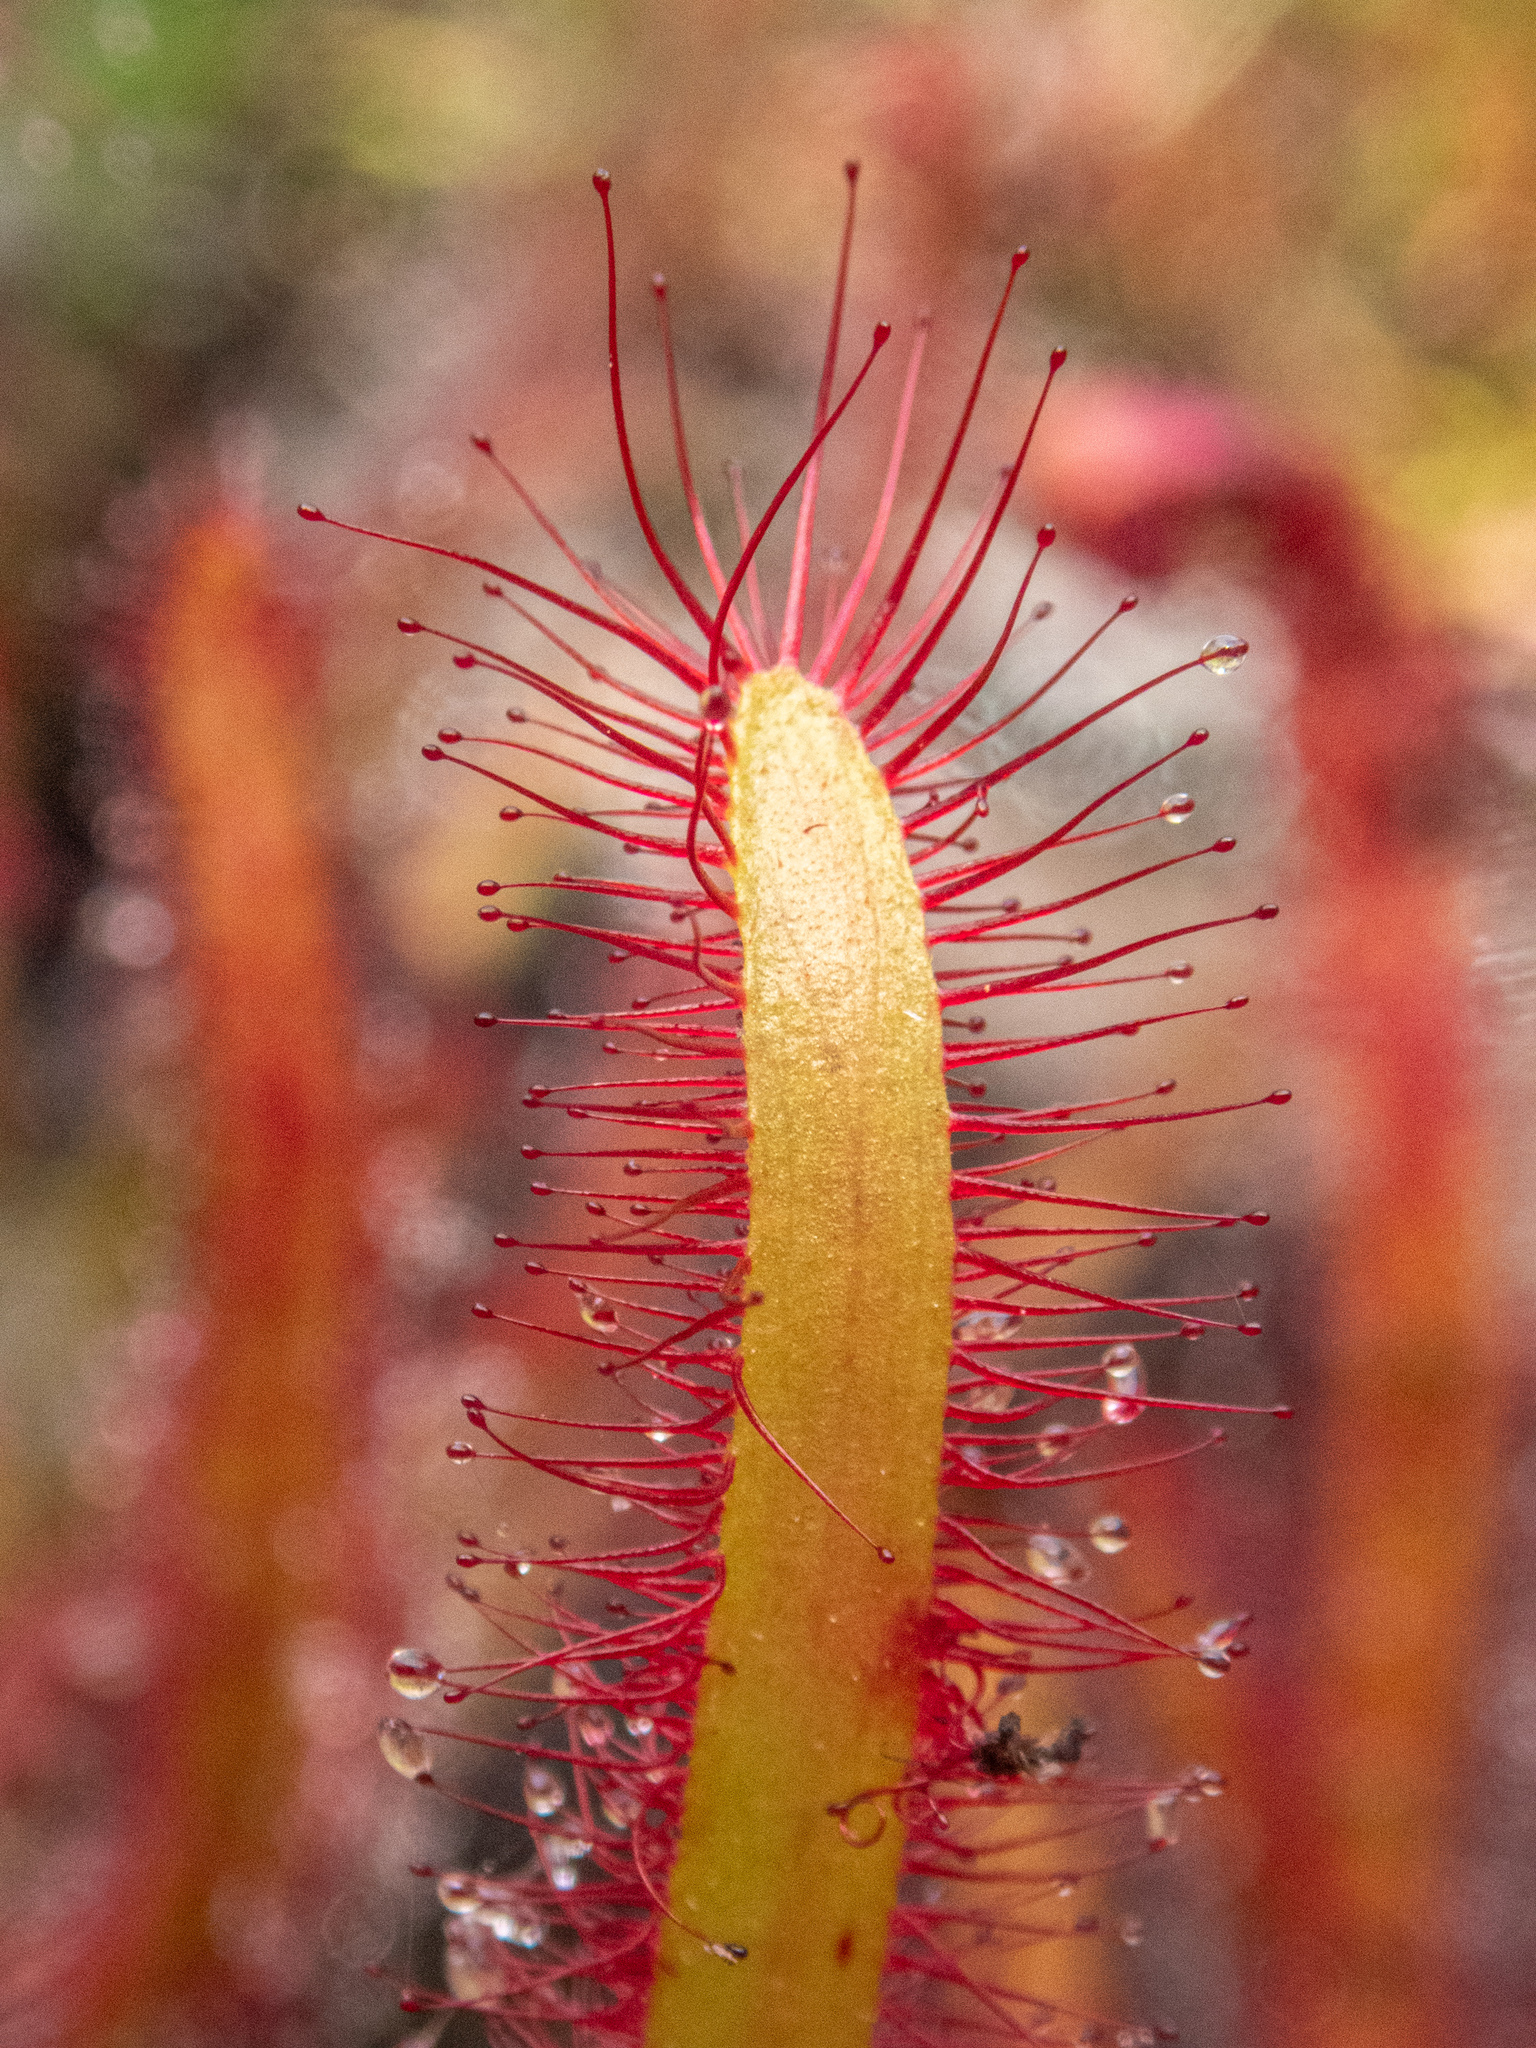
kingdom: Plantae
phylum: Tracheophyta
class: Magnoliopsida
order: Caryophyllales
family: Droseraceae
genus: Drosera
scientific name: Drosera capensis
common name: Cape sundew
